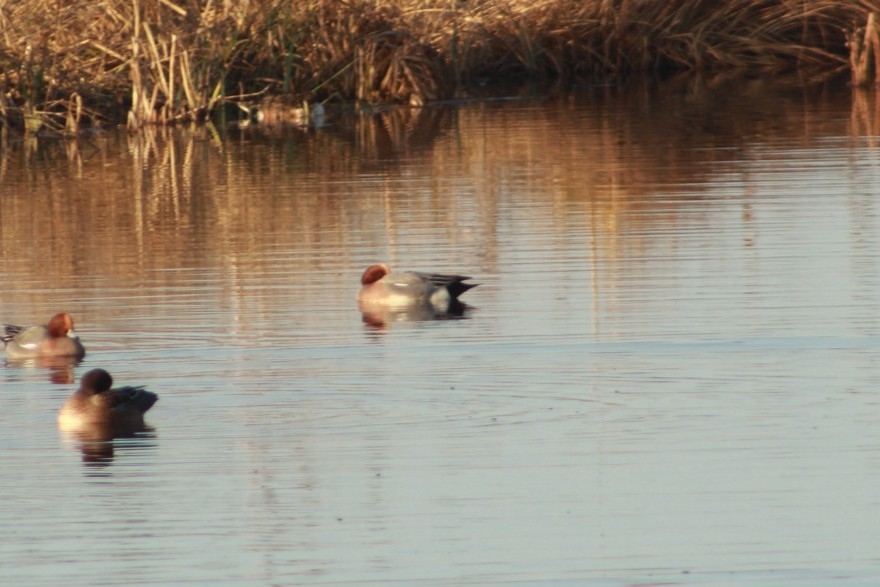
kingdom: Animalia
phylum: Chordata
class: Aves
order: Anseriformes
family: Anatidae
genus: Mareca
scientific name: Mareca penelope
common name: Eurasian wigeon
